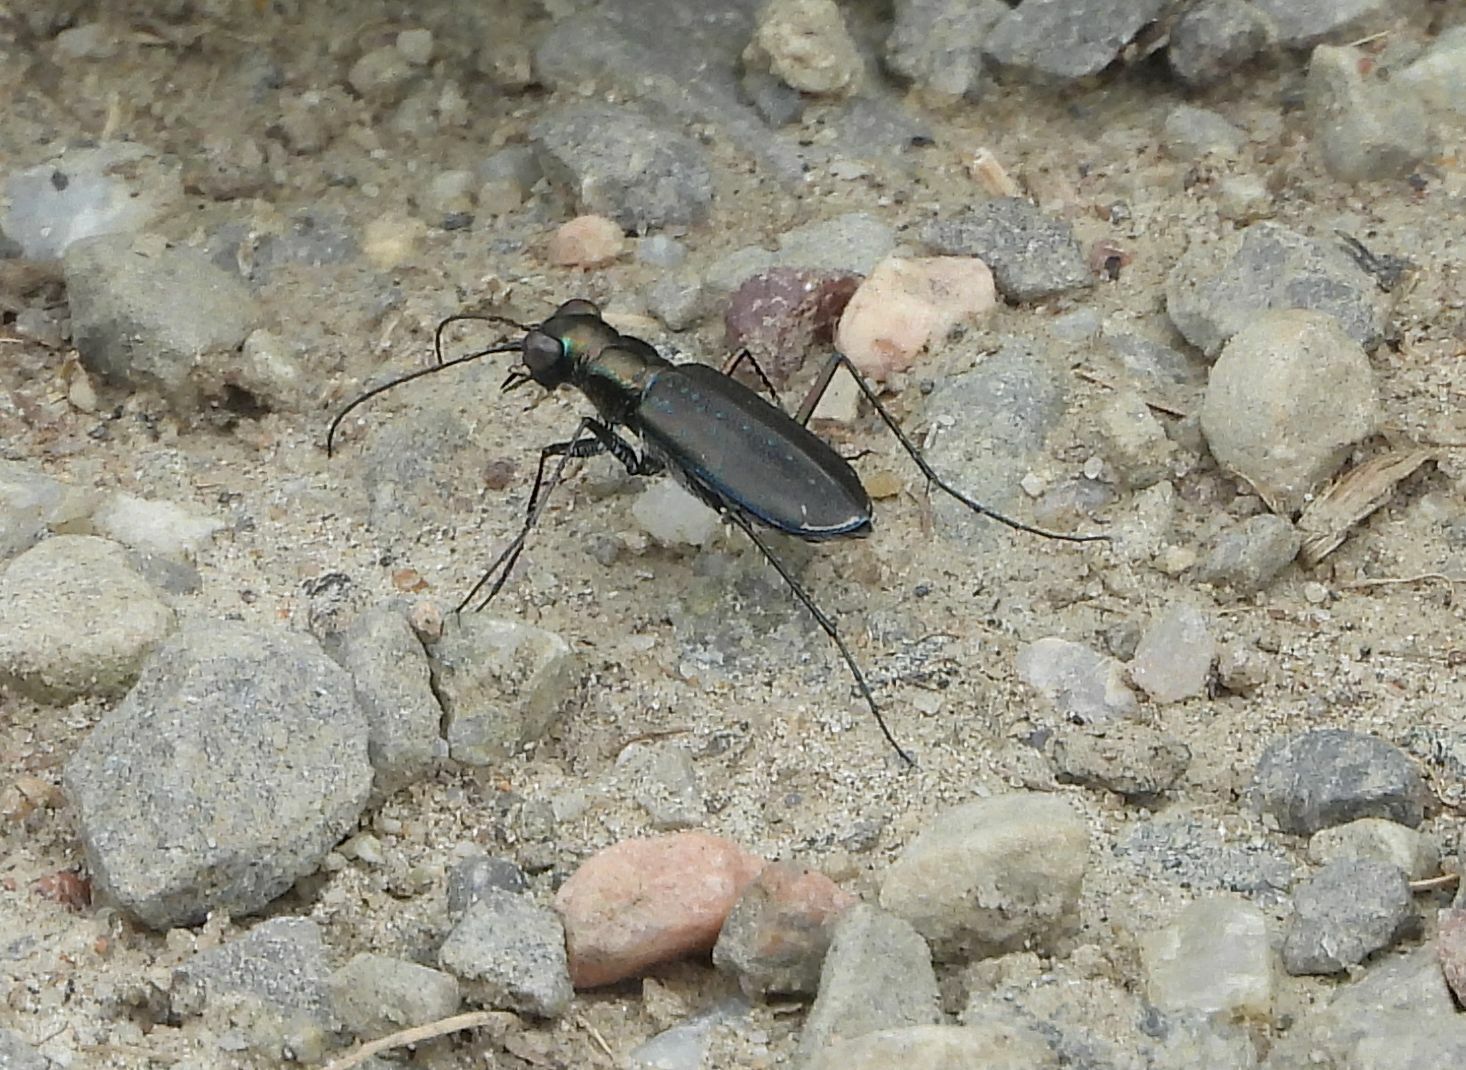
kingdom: Animalia
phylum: Arthropoda
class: Insecta
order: Coleoptera
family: Carabidae
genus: Cicindela
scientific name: Cicindela punctulata
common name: Punctured tiger beetle
